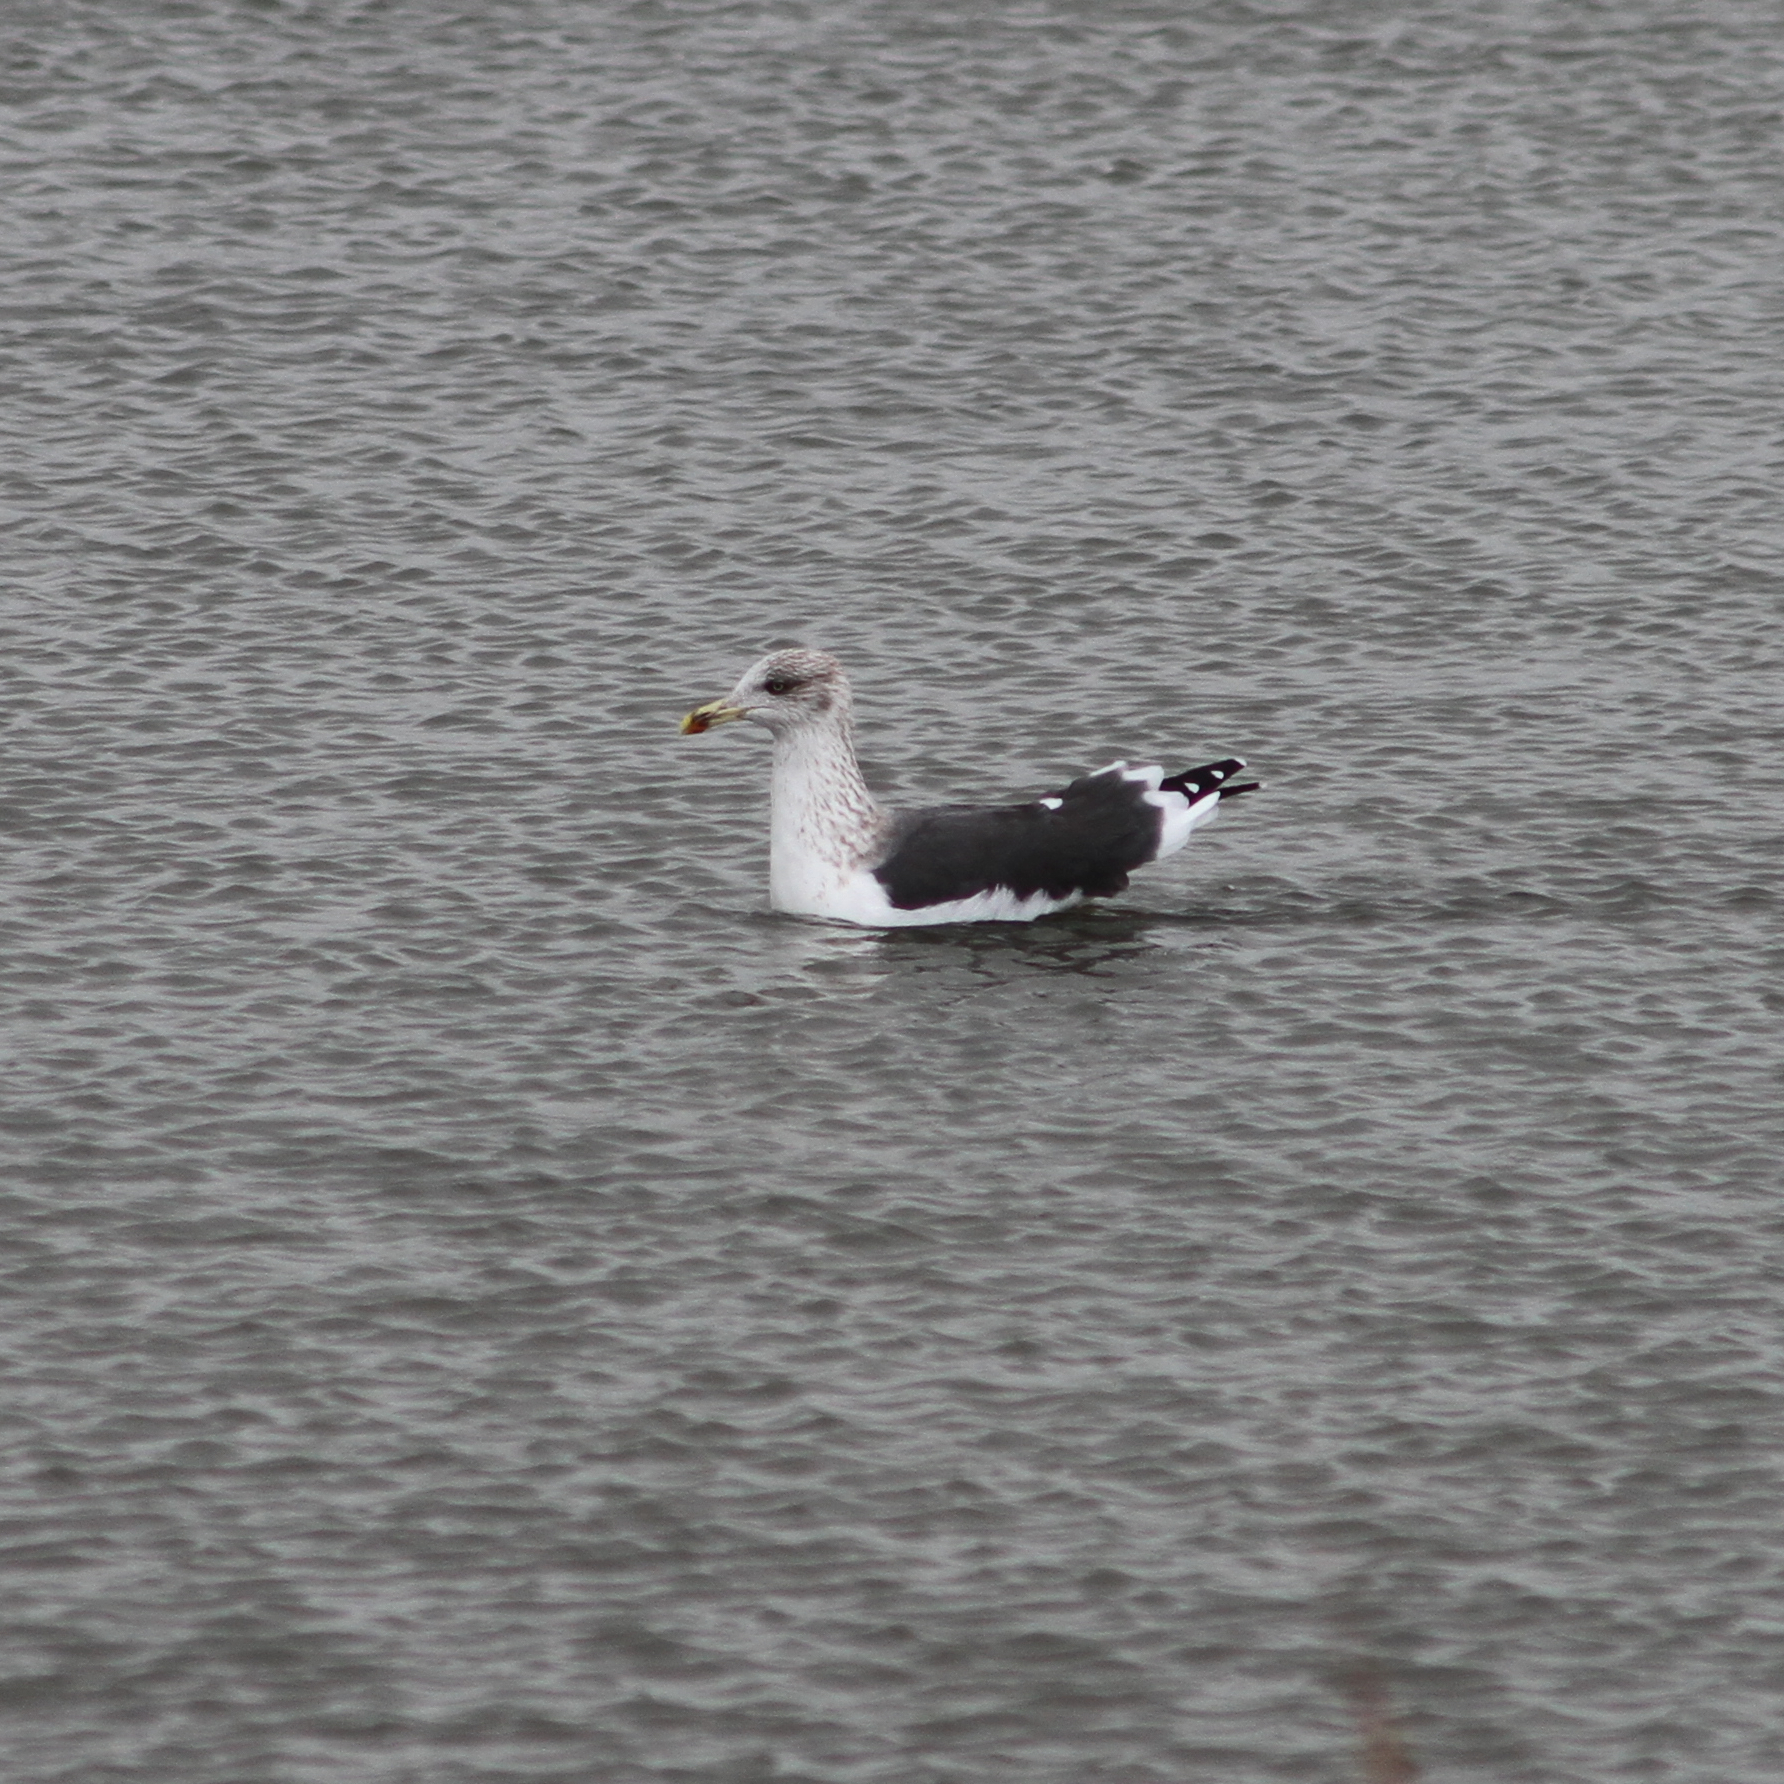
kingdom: Animalia
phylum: Chordata
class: Aves
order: Charadriiformes
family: Laridae
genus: Larus
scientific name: Larus fuscus
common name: Lesser black-backed gull
